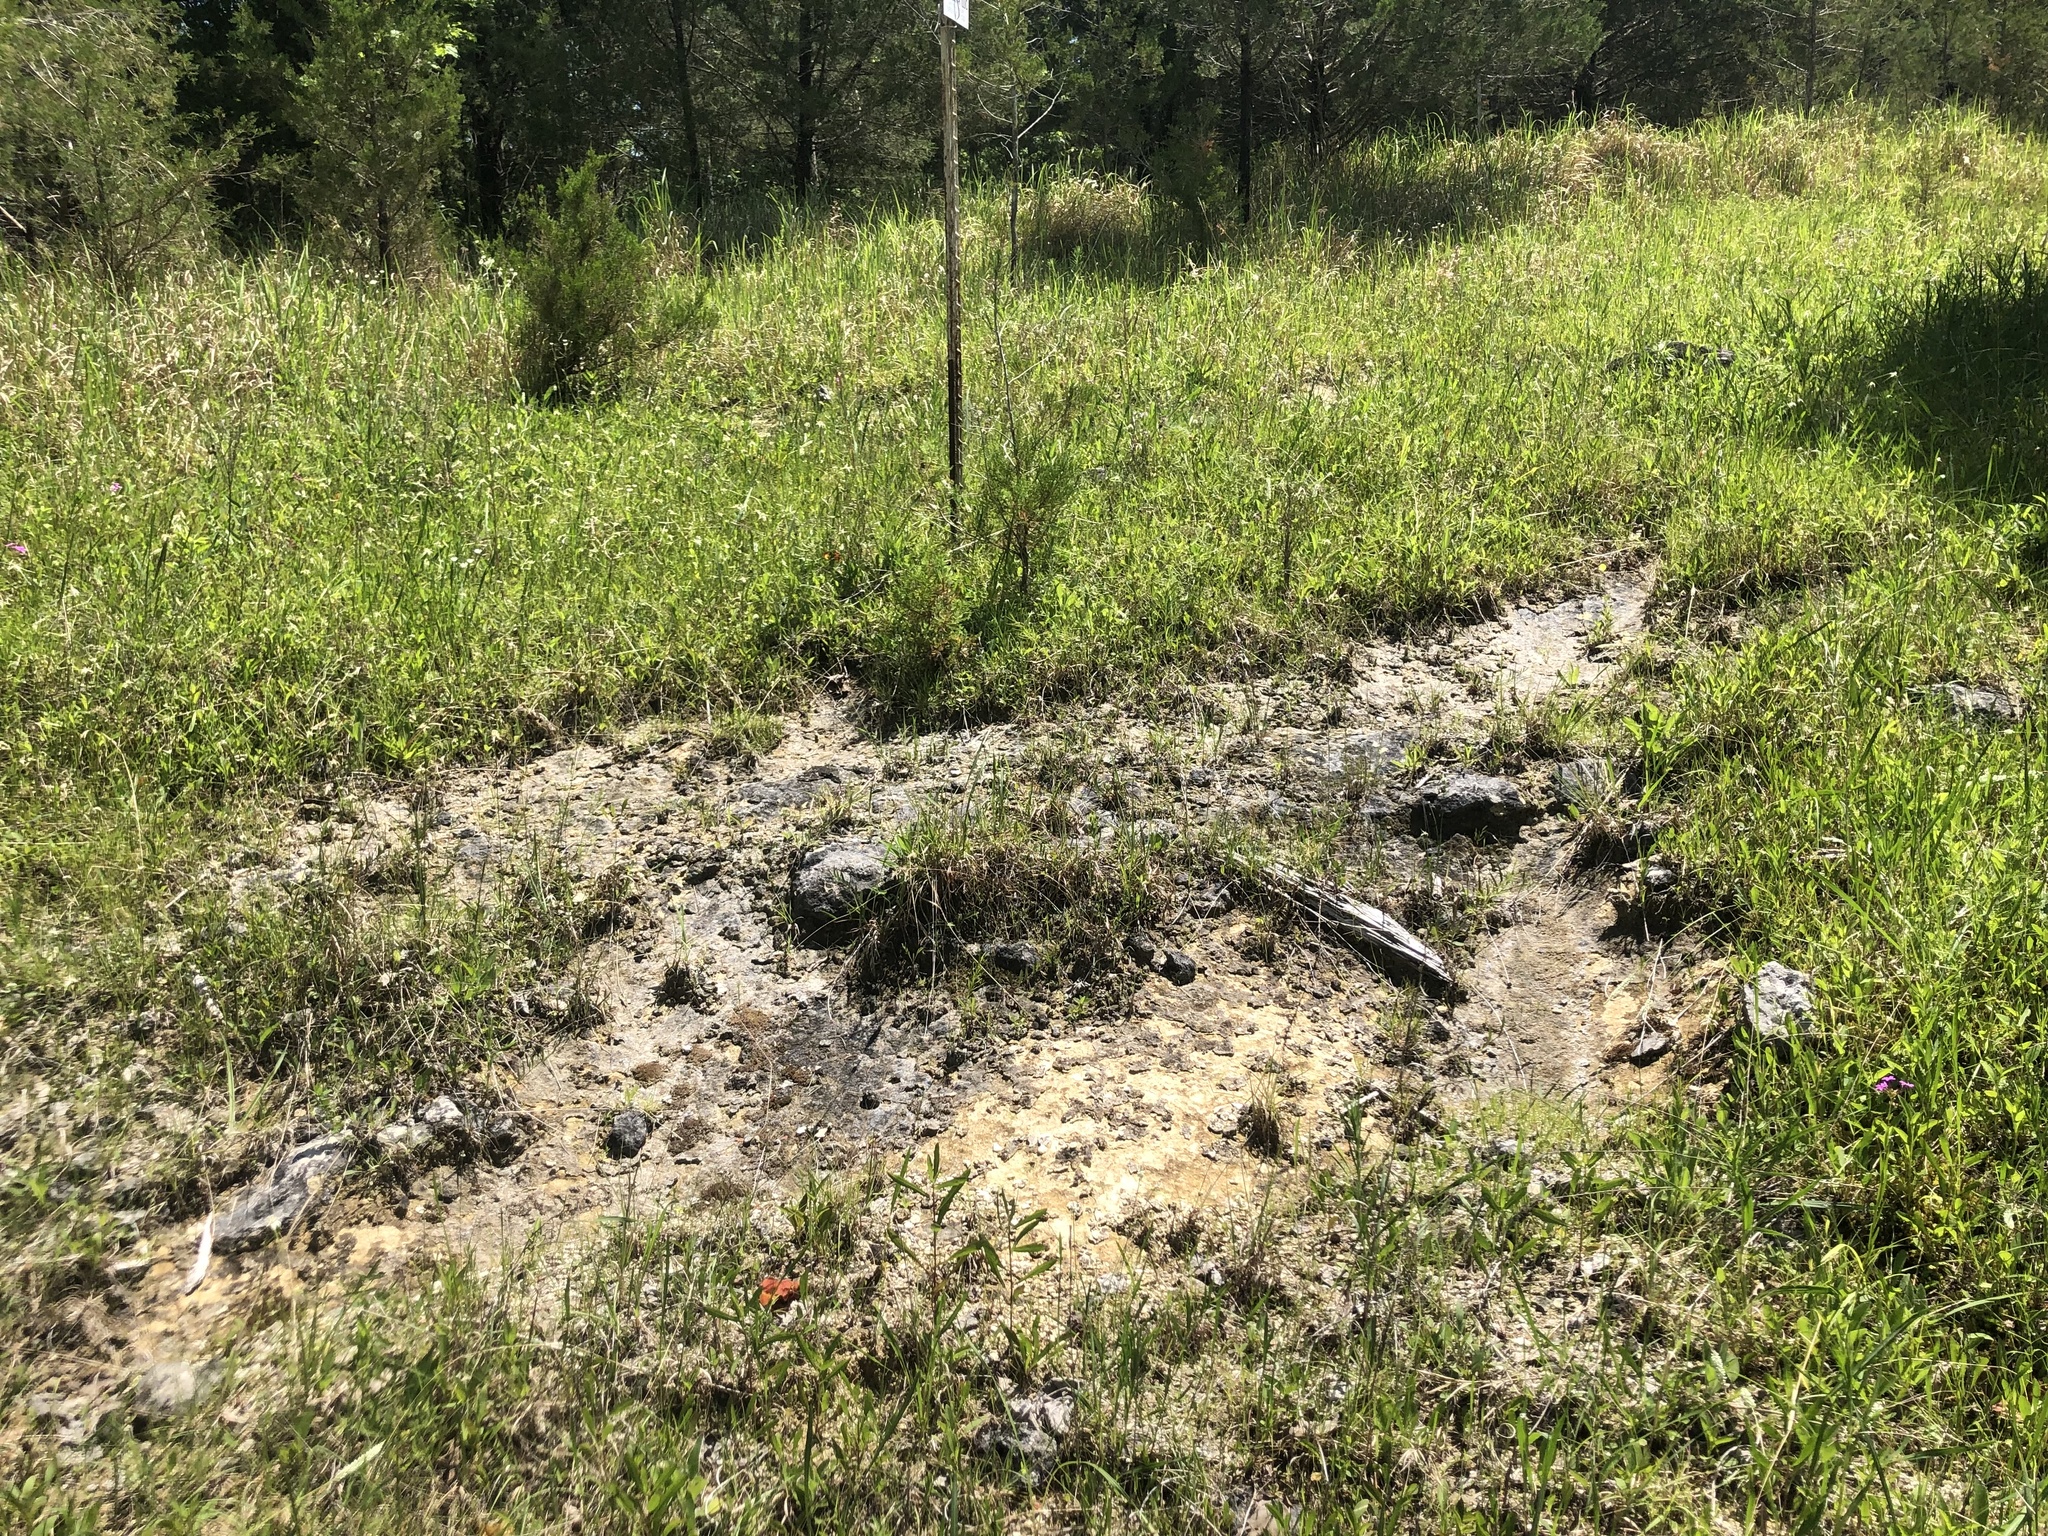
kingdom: Plantae
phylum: Tracheophyta
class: Magnoliopsida
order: Malpighiales
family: Euphorbiaceae
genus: Tragia
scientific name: Tragia urticifolia
